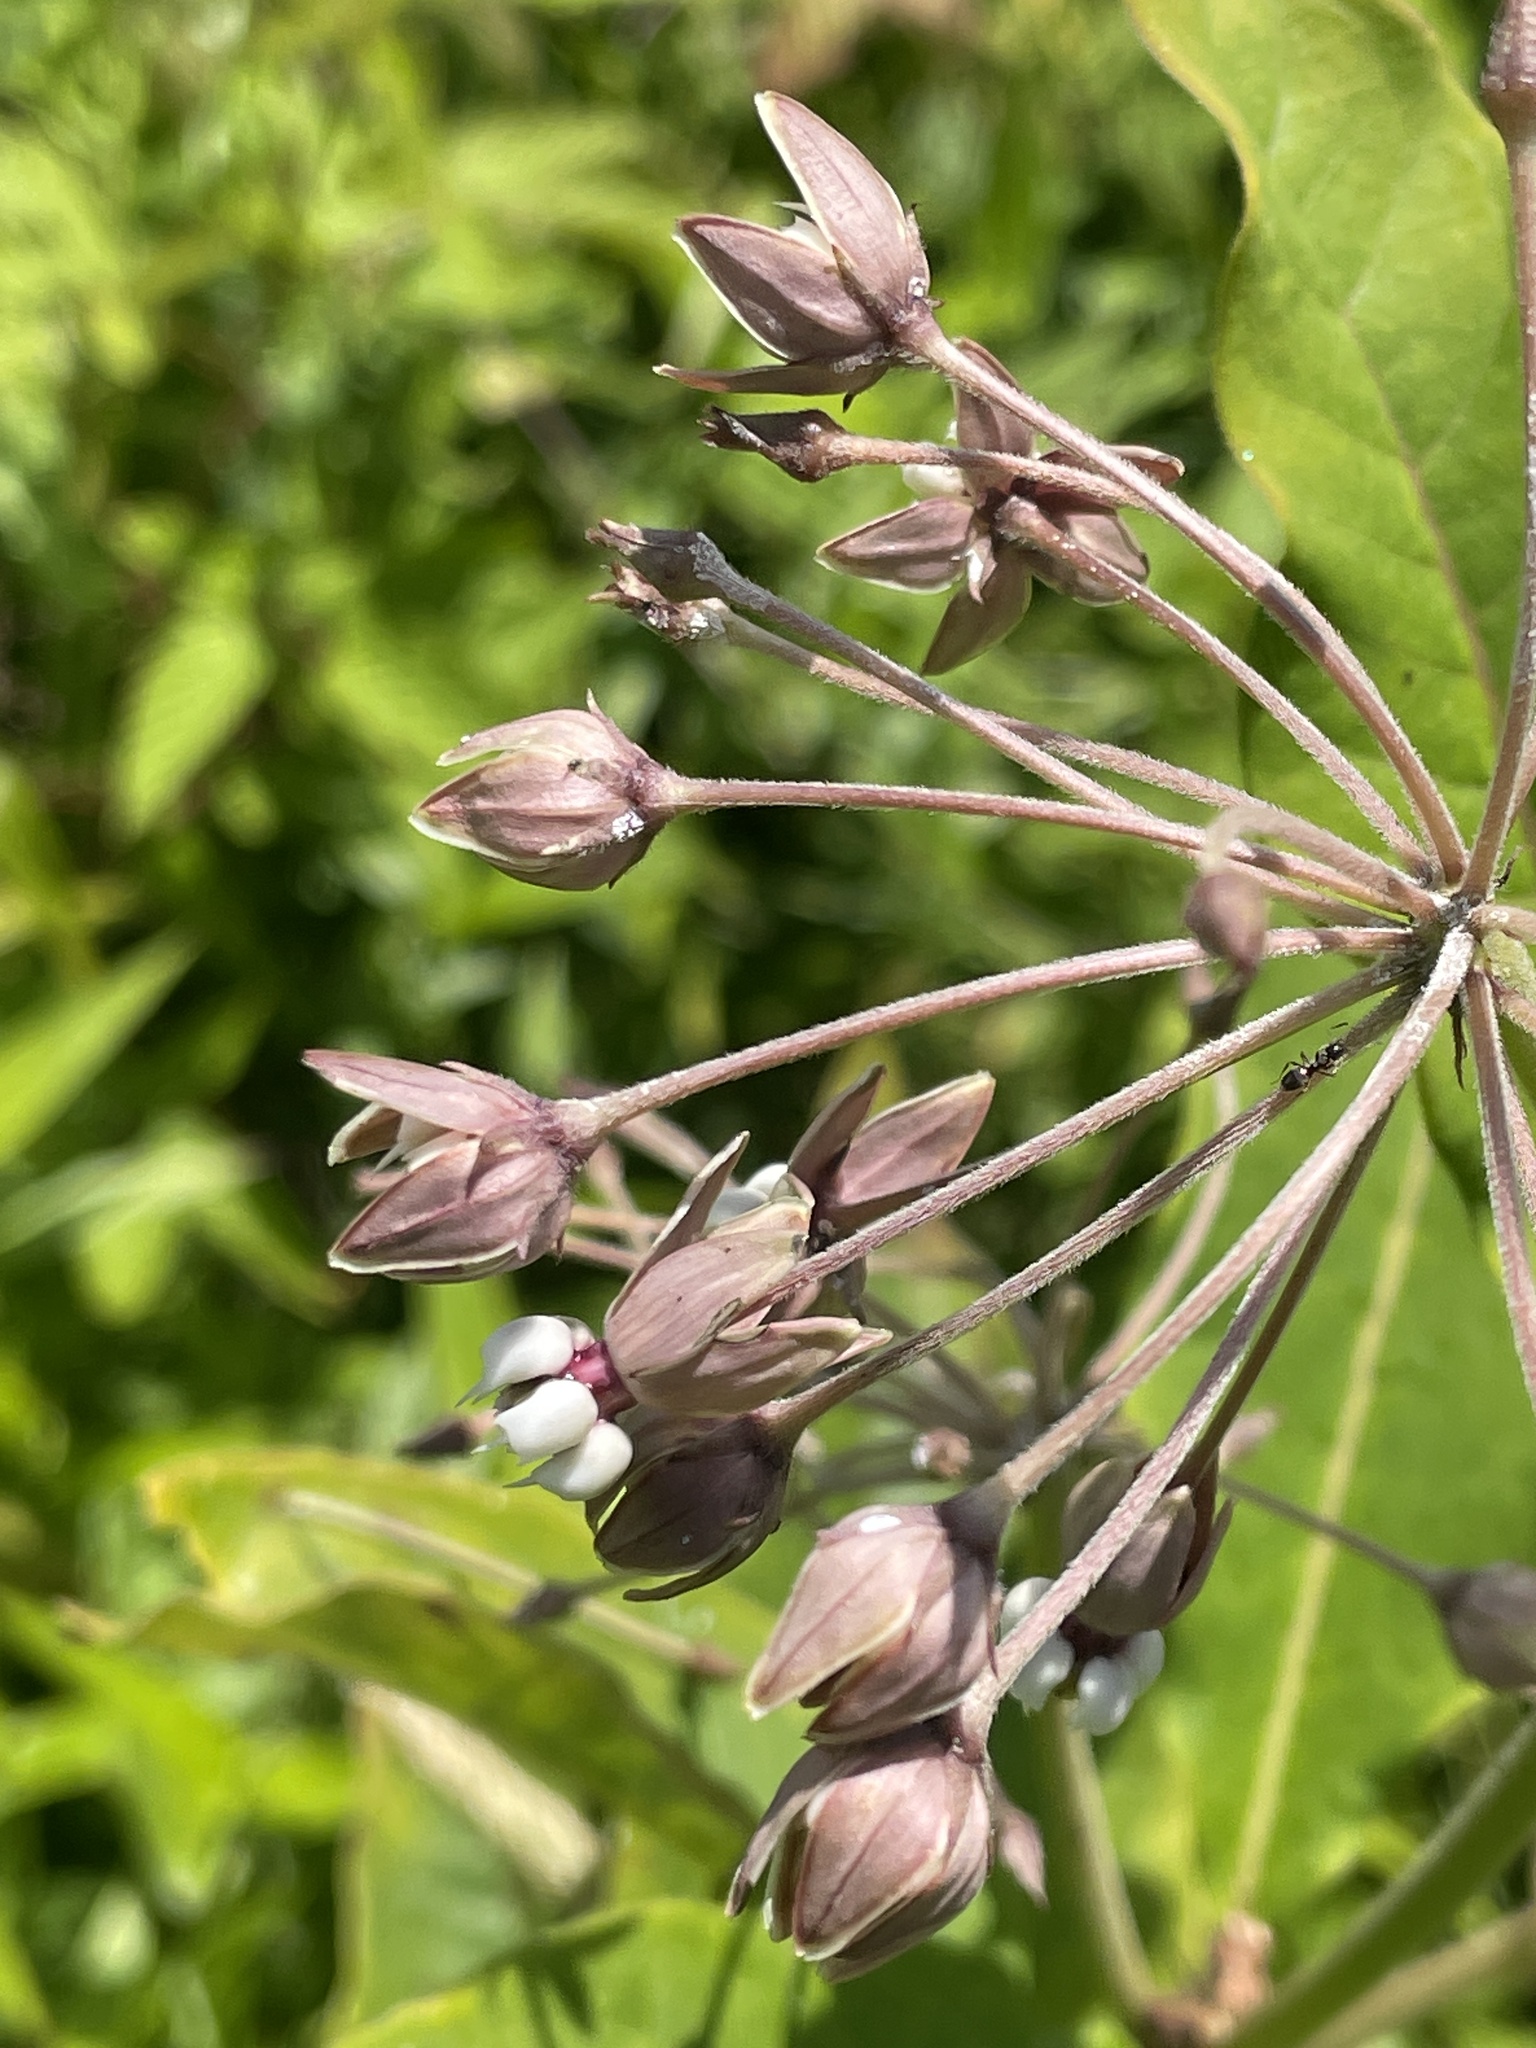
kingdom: Plantae
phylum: Tracheophyta
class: Magnoliopsida
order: Gentianales
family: Apocynaceae
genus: Asclepias
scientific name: Asclepias exaltata
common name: Poke milkweed
